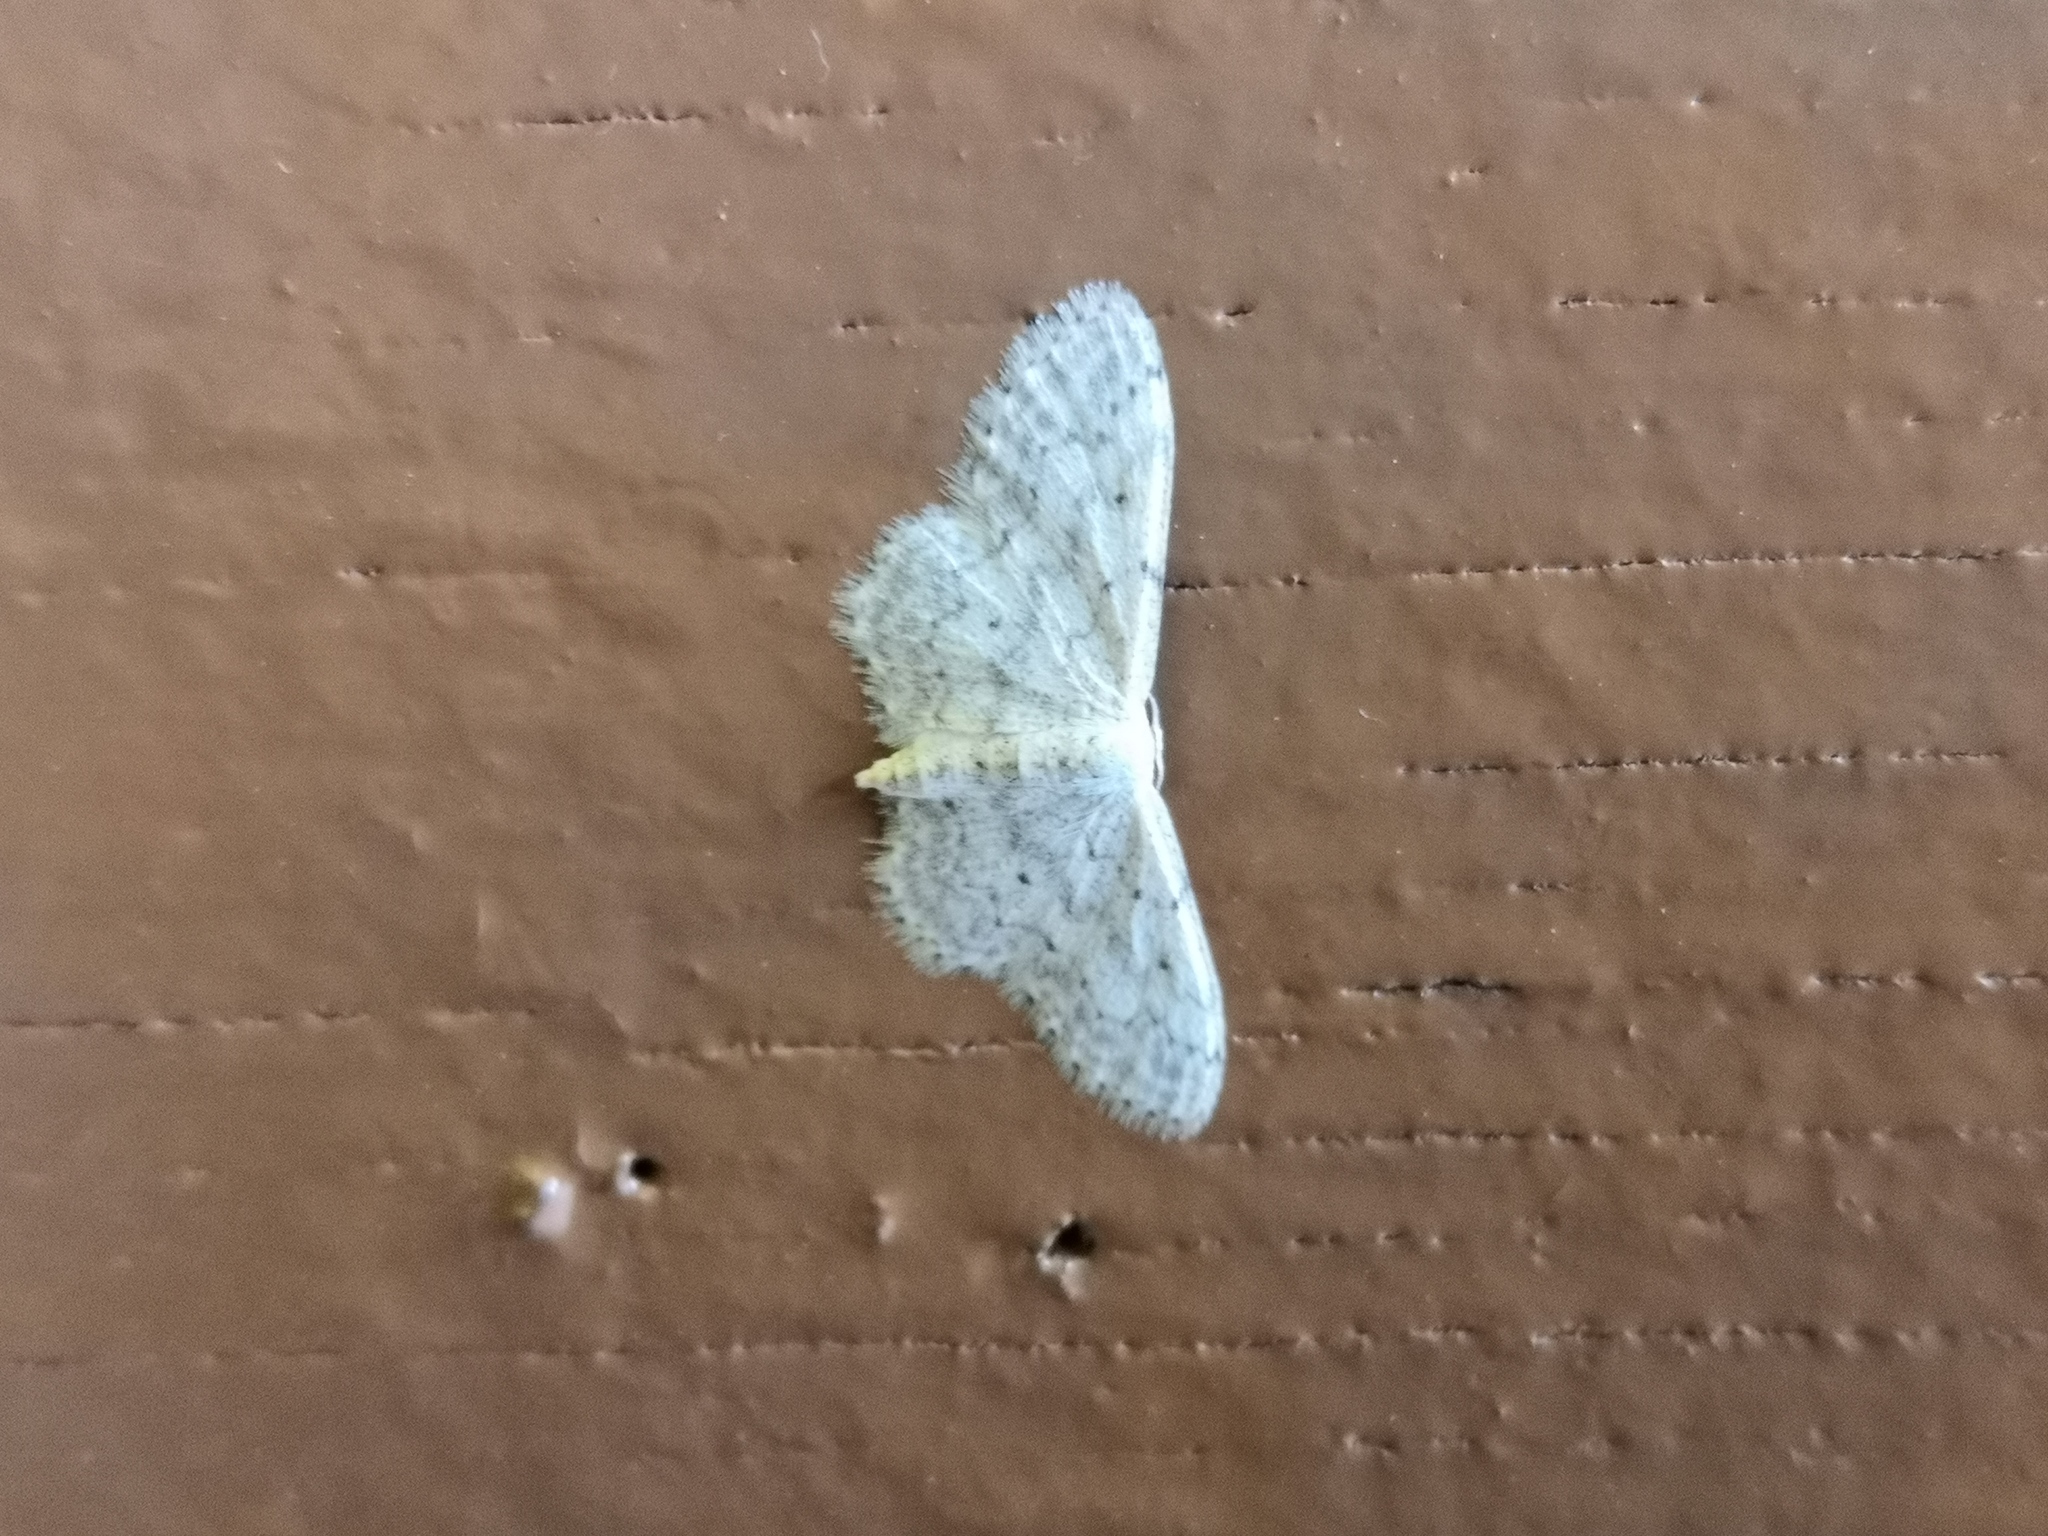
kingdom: Animalia
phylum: Arthropoda
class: Insecta
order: Lepidoptera
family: Geometridae
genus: Idaea
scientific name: Idaea seriata
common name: Small dusty wave
